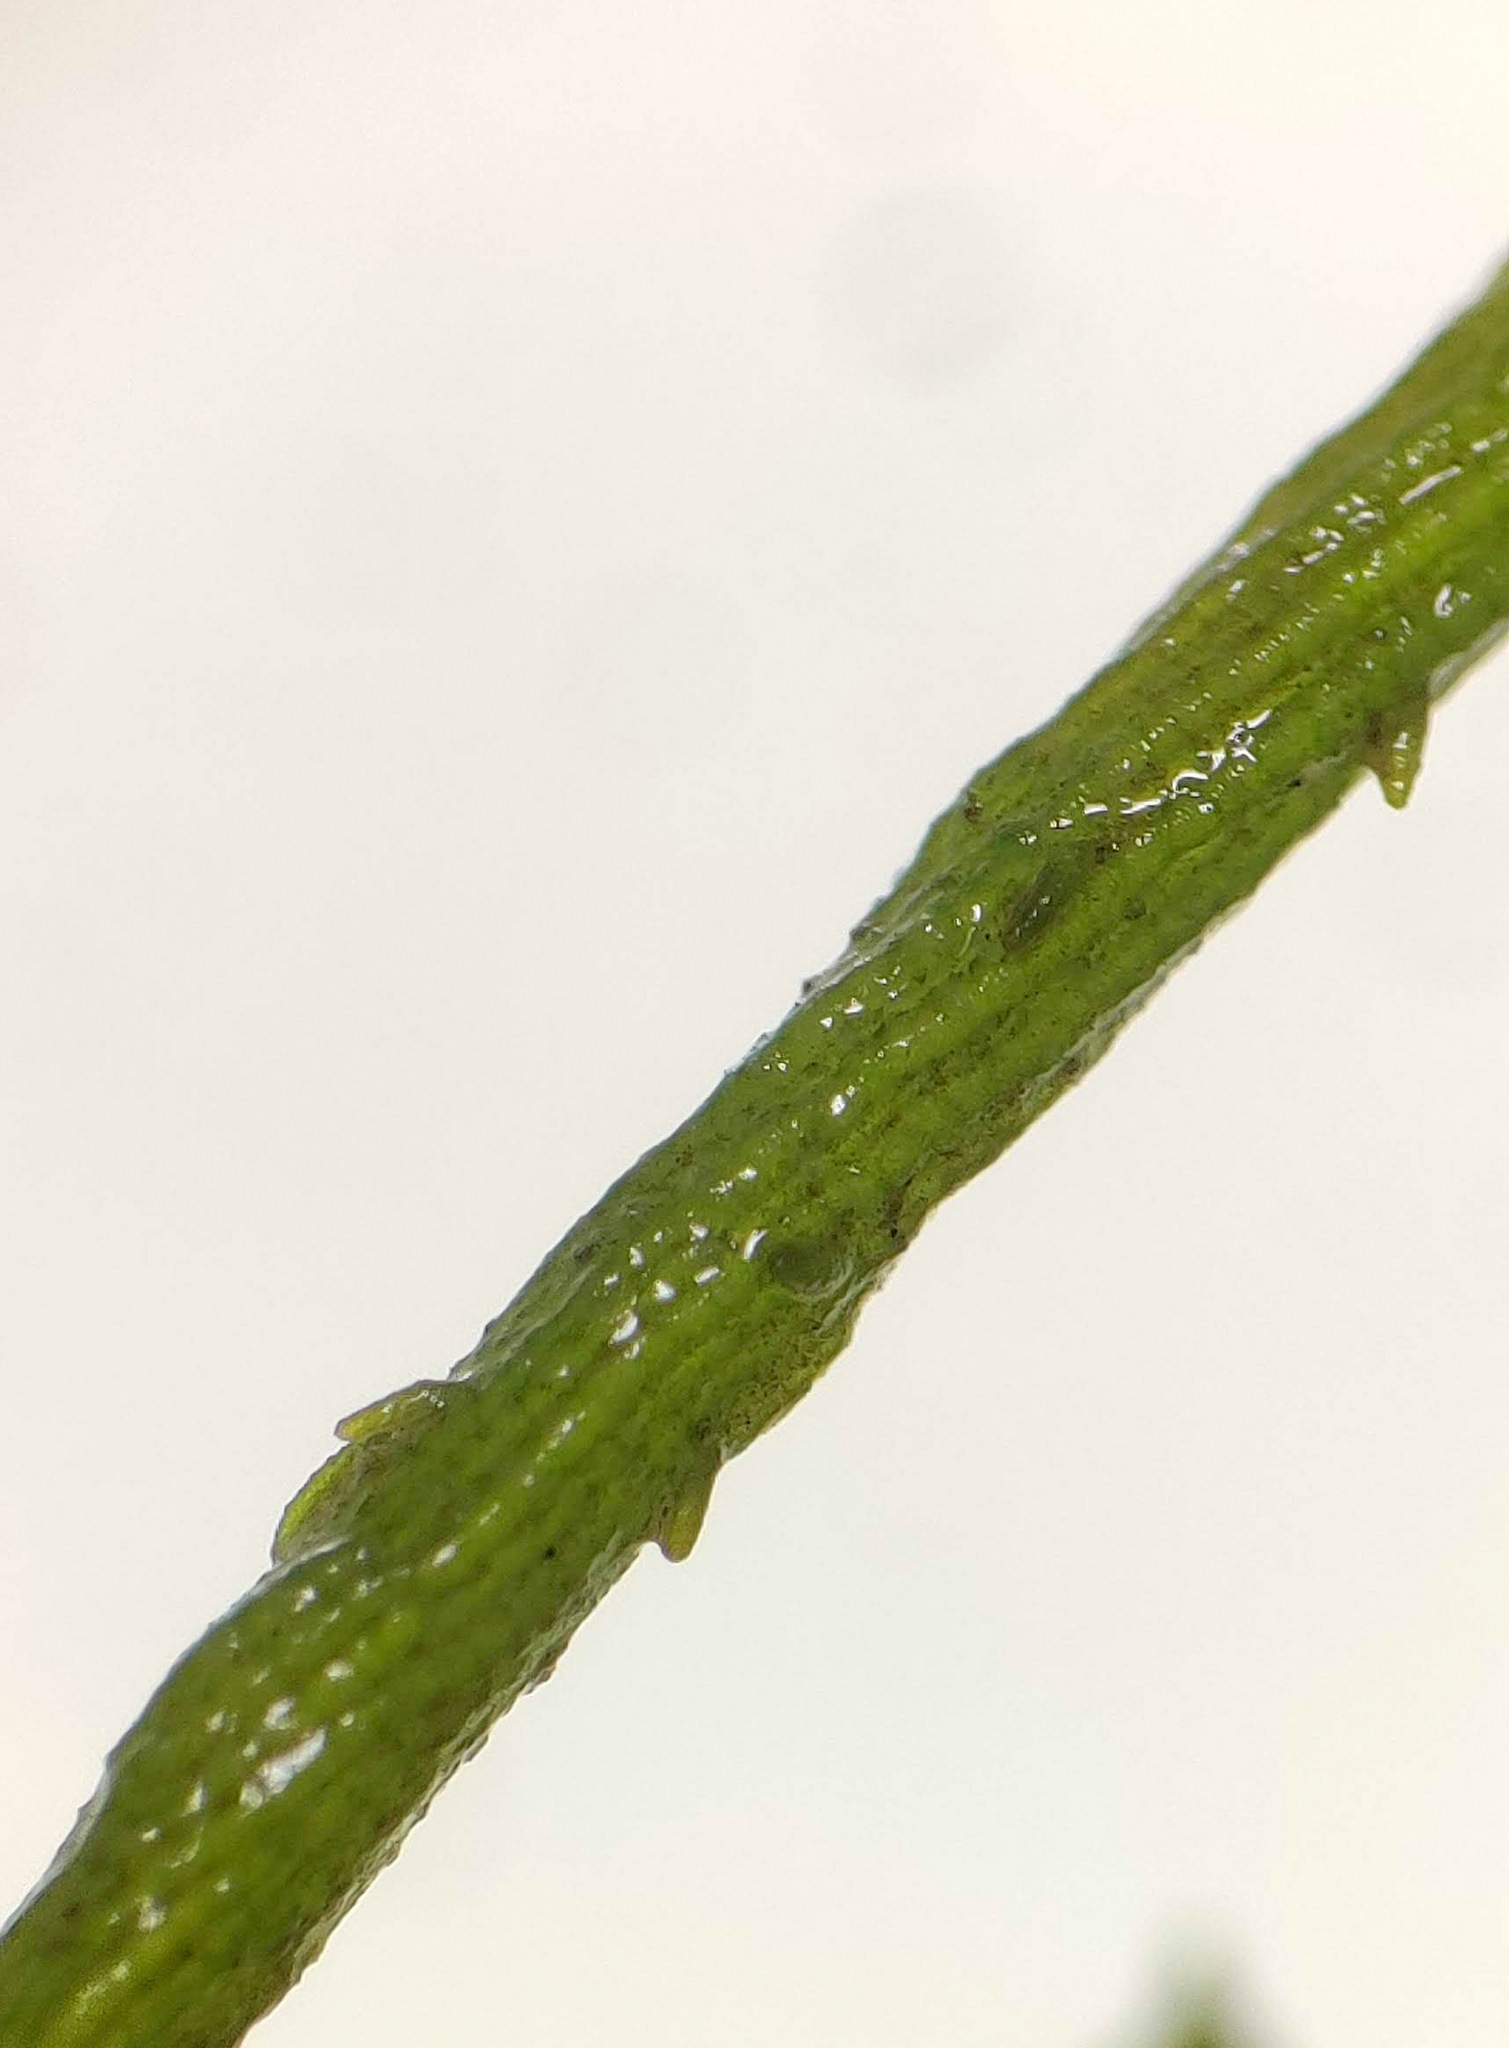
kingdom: Plantae
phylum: Charophyta
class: Charophyceae
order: Charales
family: Characeae
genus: Chara
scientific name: Chara vulgaris
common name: Common stonewort
